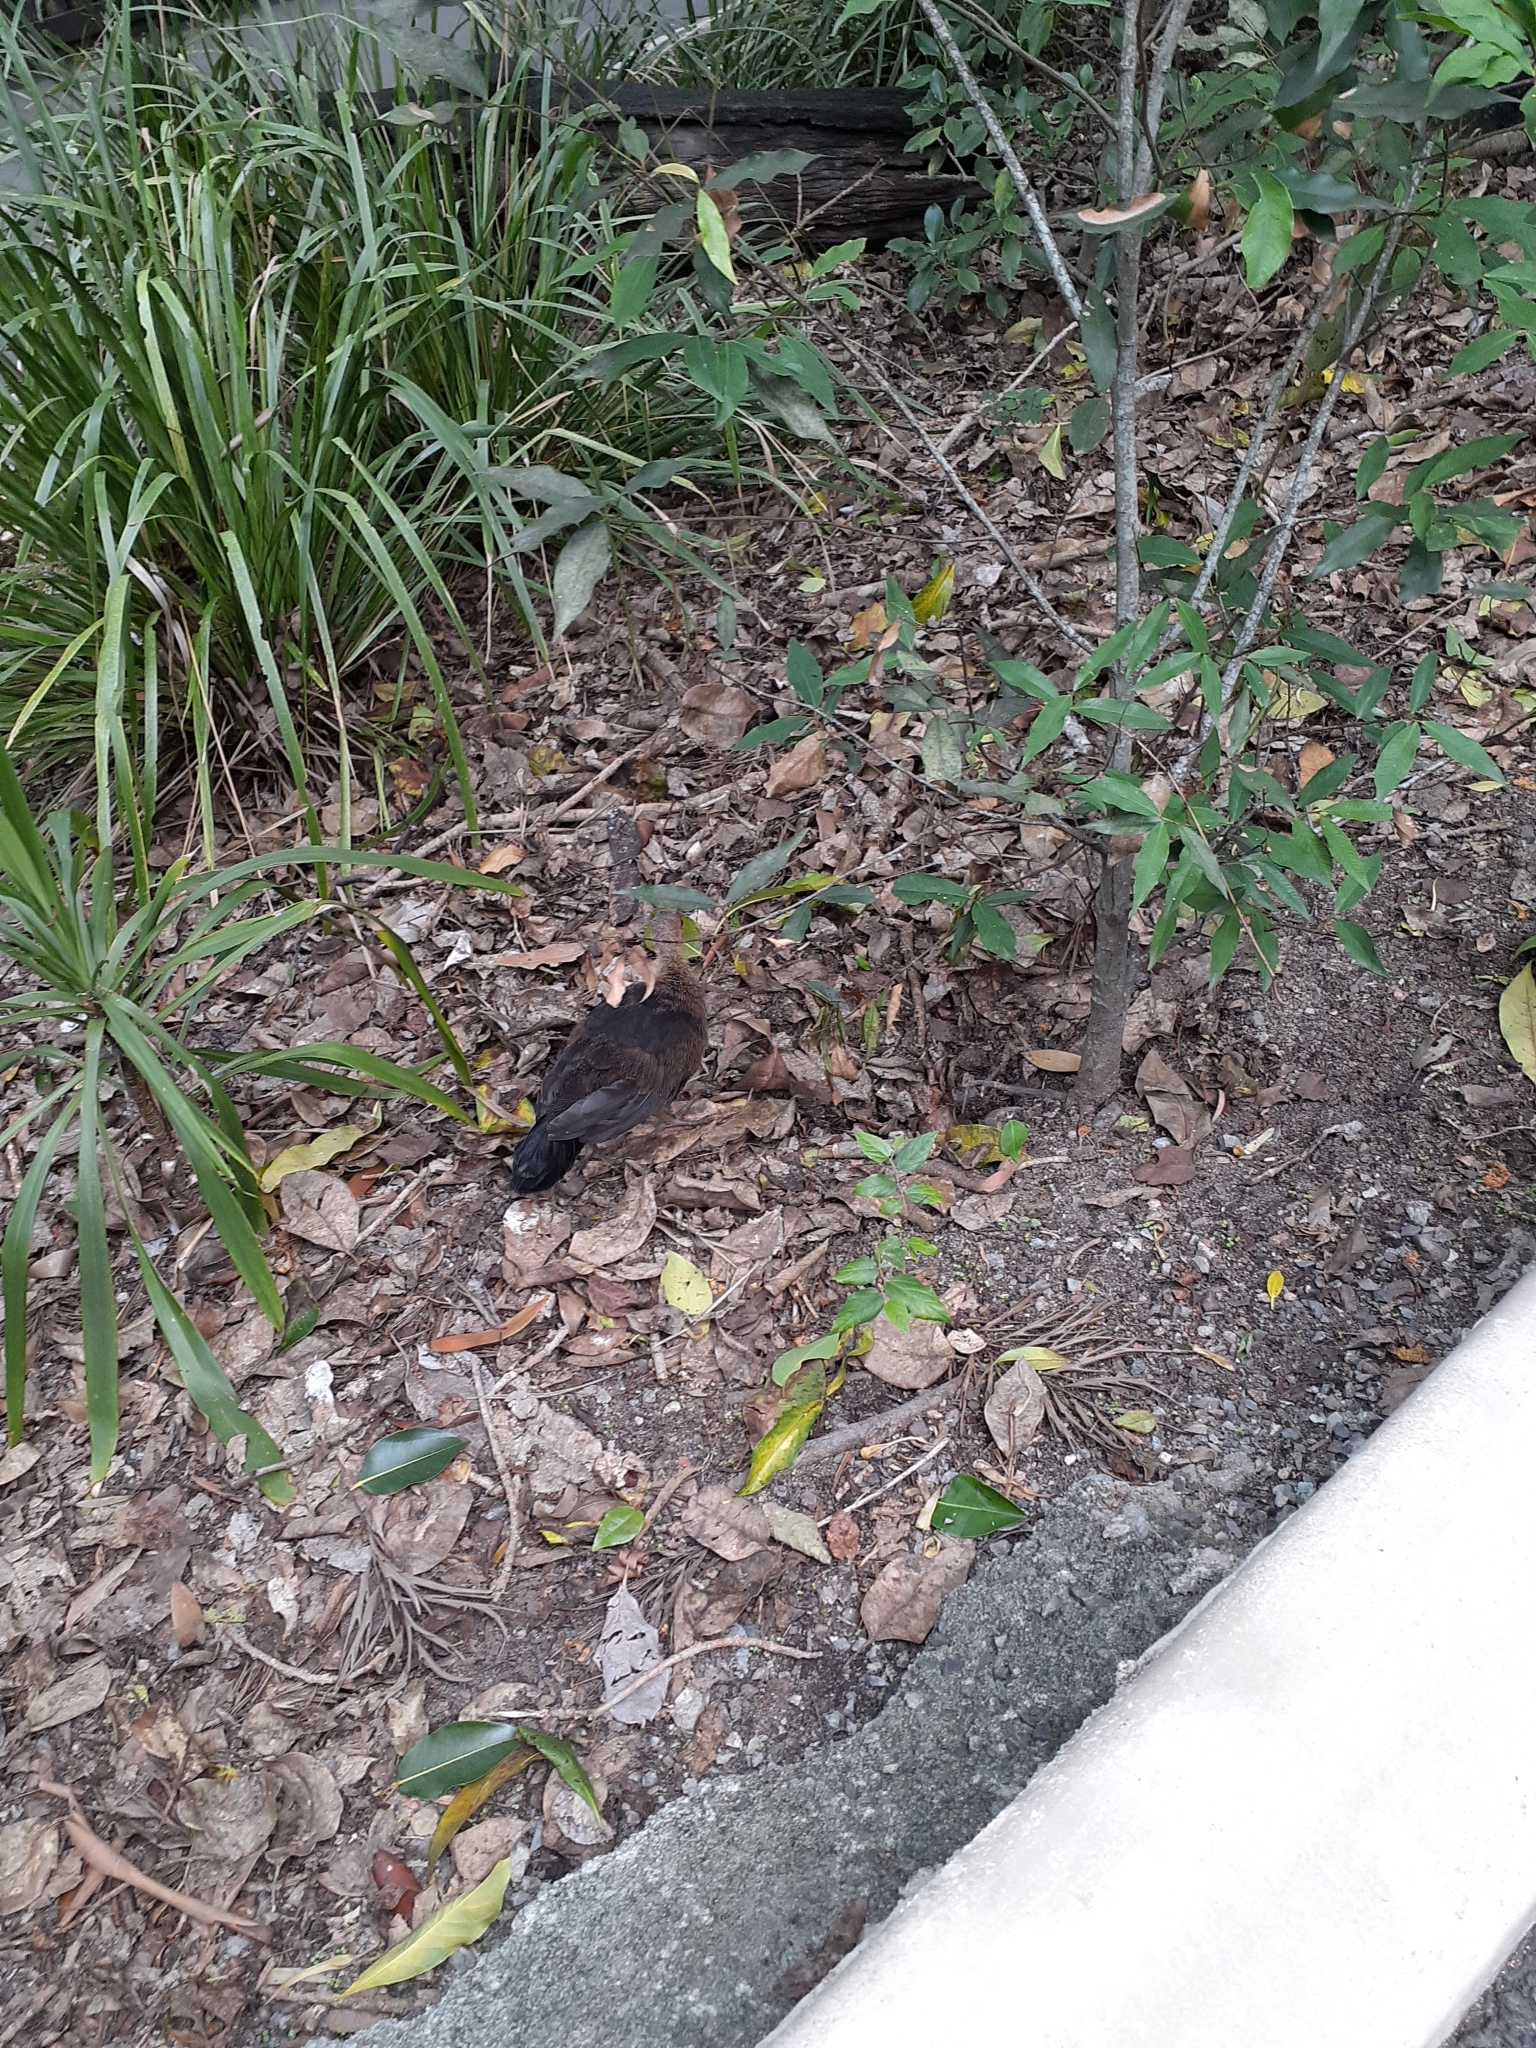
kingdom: Animalia
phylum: Chordata
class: Aves
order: Galliformes
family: Megapodiidae
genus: Alectura
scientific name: Alectura lathami
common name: Australian brushturkey
